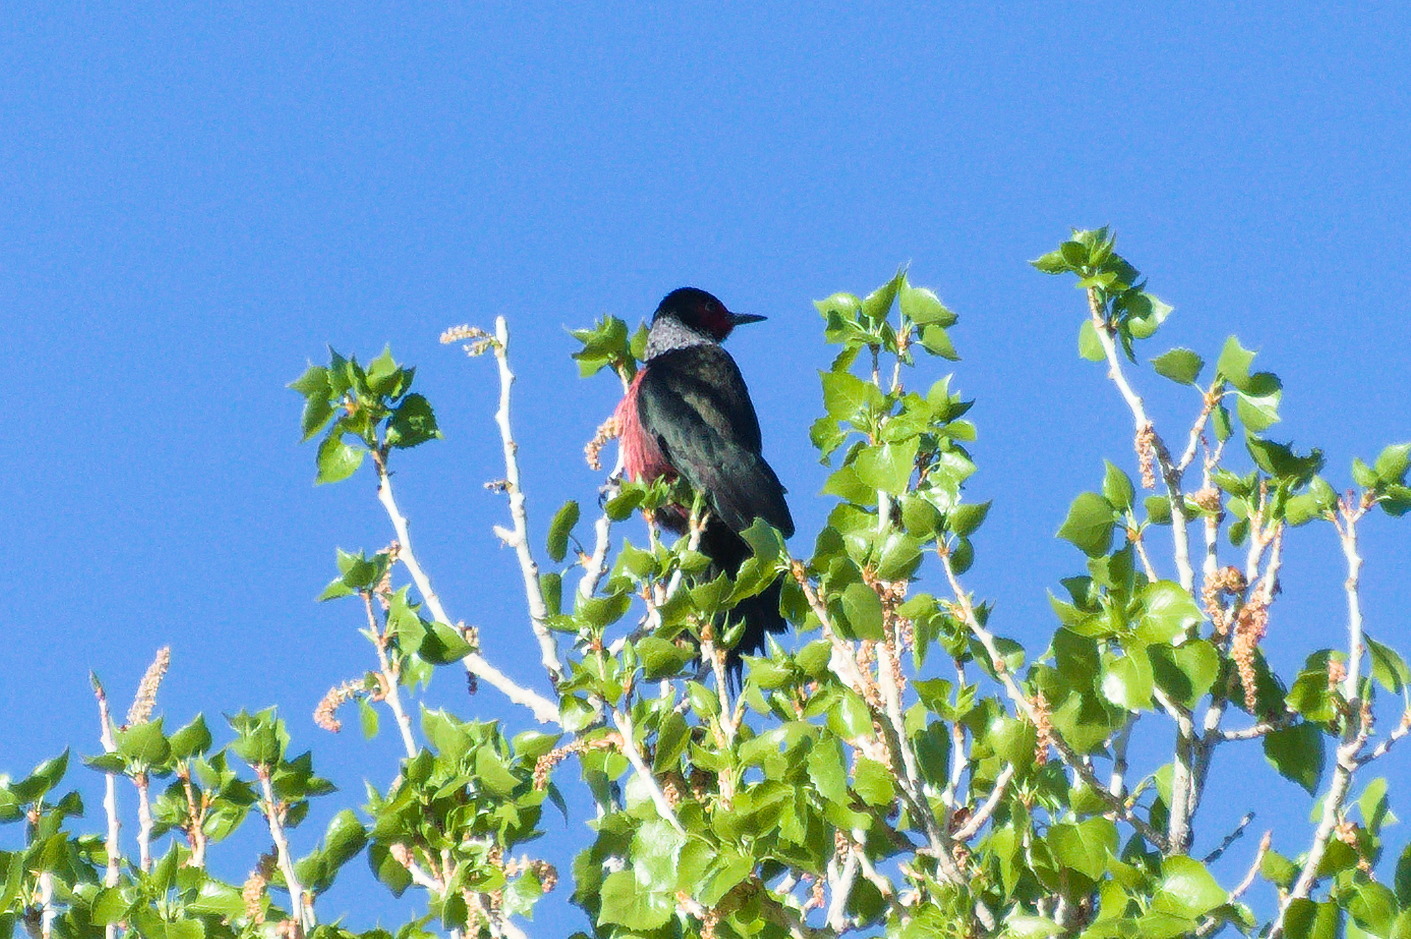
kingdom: Animalia
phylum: Chordata
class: Aves
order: Piciformes
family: Picidae
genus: Melanerpes
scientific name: Melanerpes lewis
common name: Lewis's woodpecker
